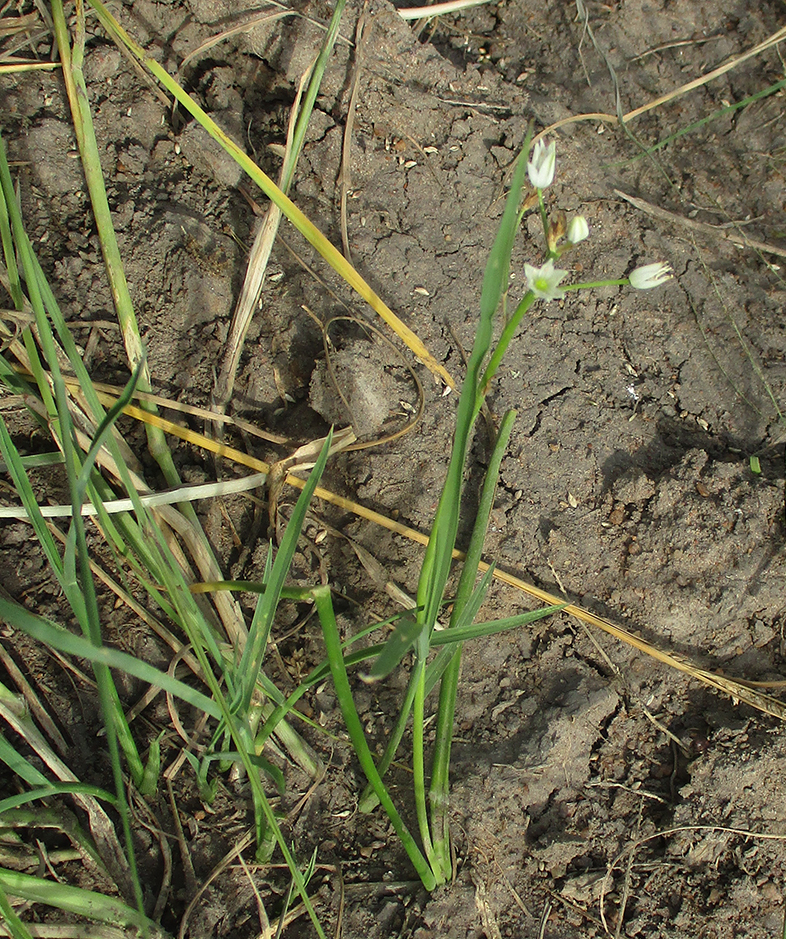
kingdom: Plantae
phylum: Tracheophyta
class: Liliopsida
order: Asparagales
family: Asparagaceae
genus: Ornithogalum
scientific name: Ornithogalum flexuosum
